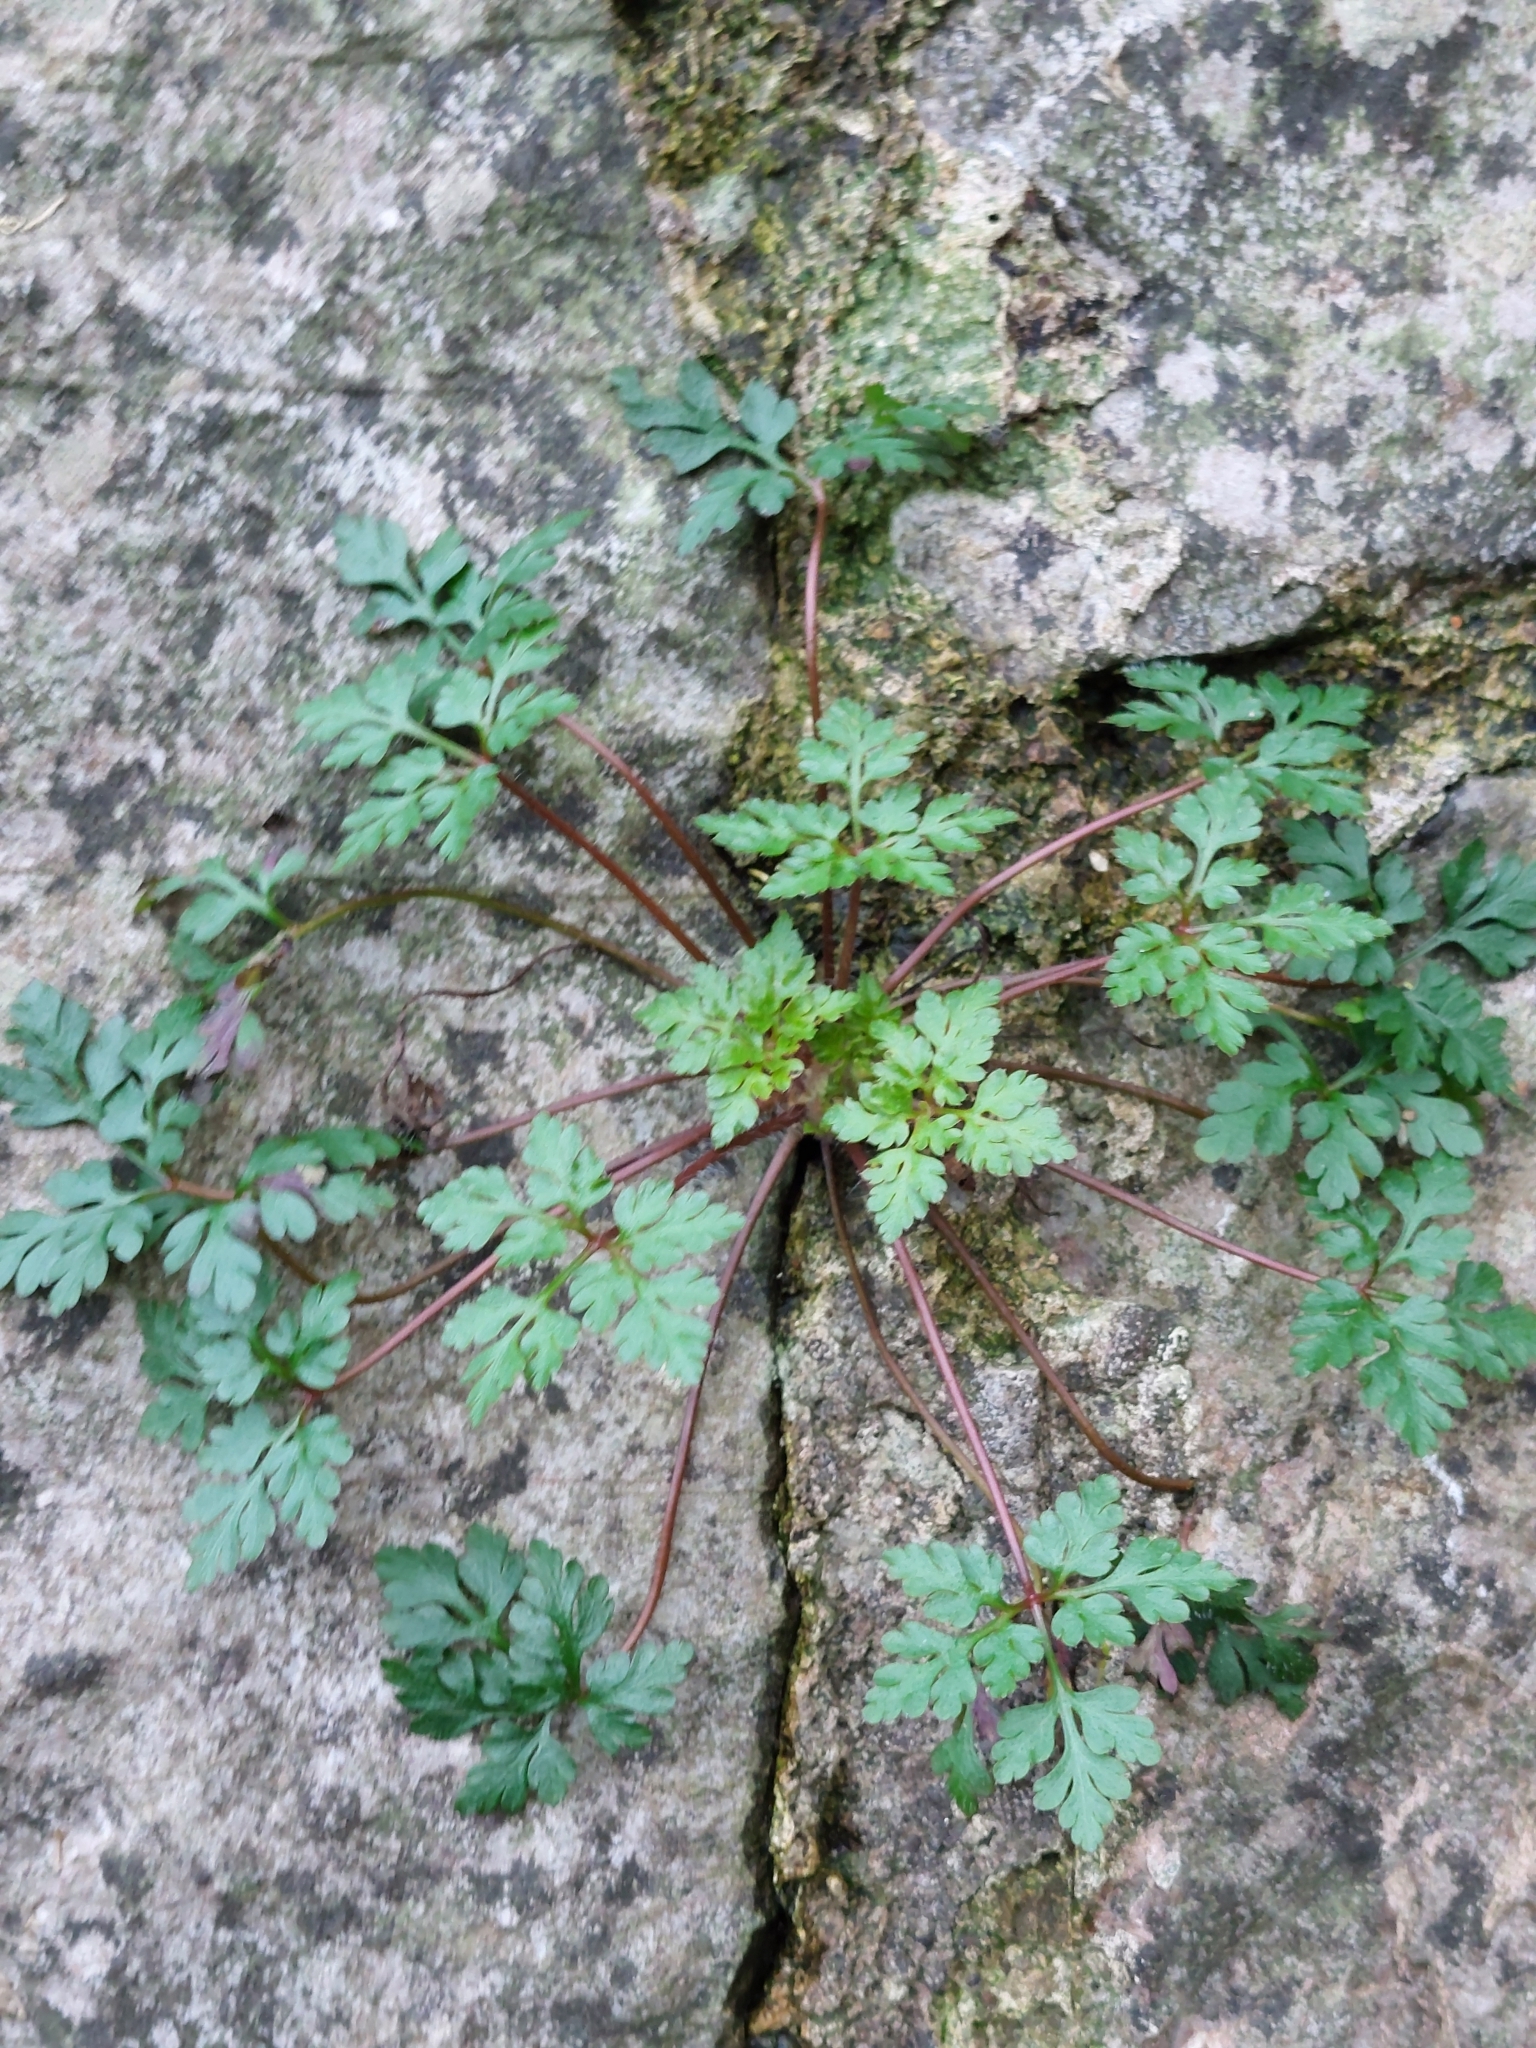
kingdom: Plantae
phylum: Tracheophyta
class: Magnoliopsida
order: Geraniales
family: Geraniaceae
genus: Geranium
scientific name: Geranium robertianum
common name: Herb-robert
